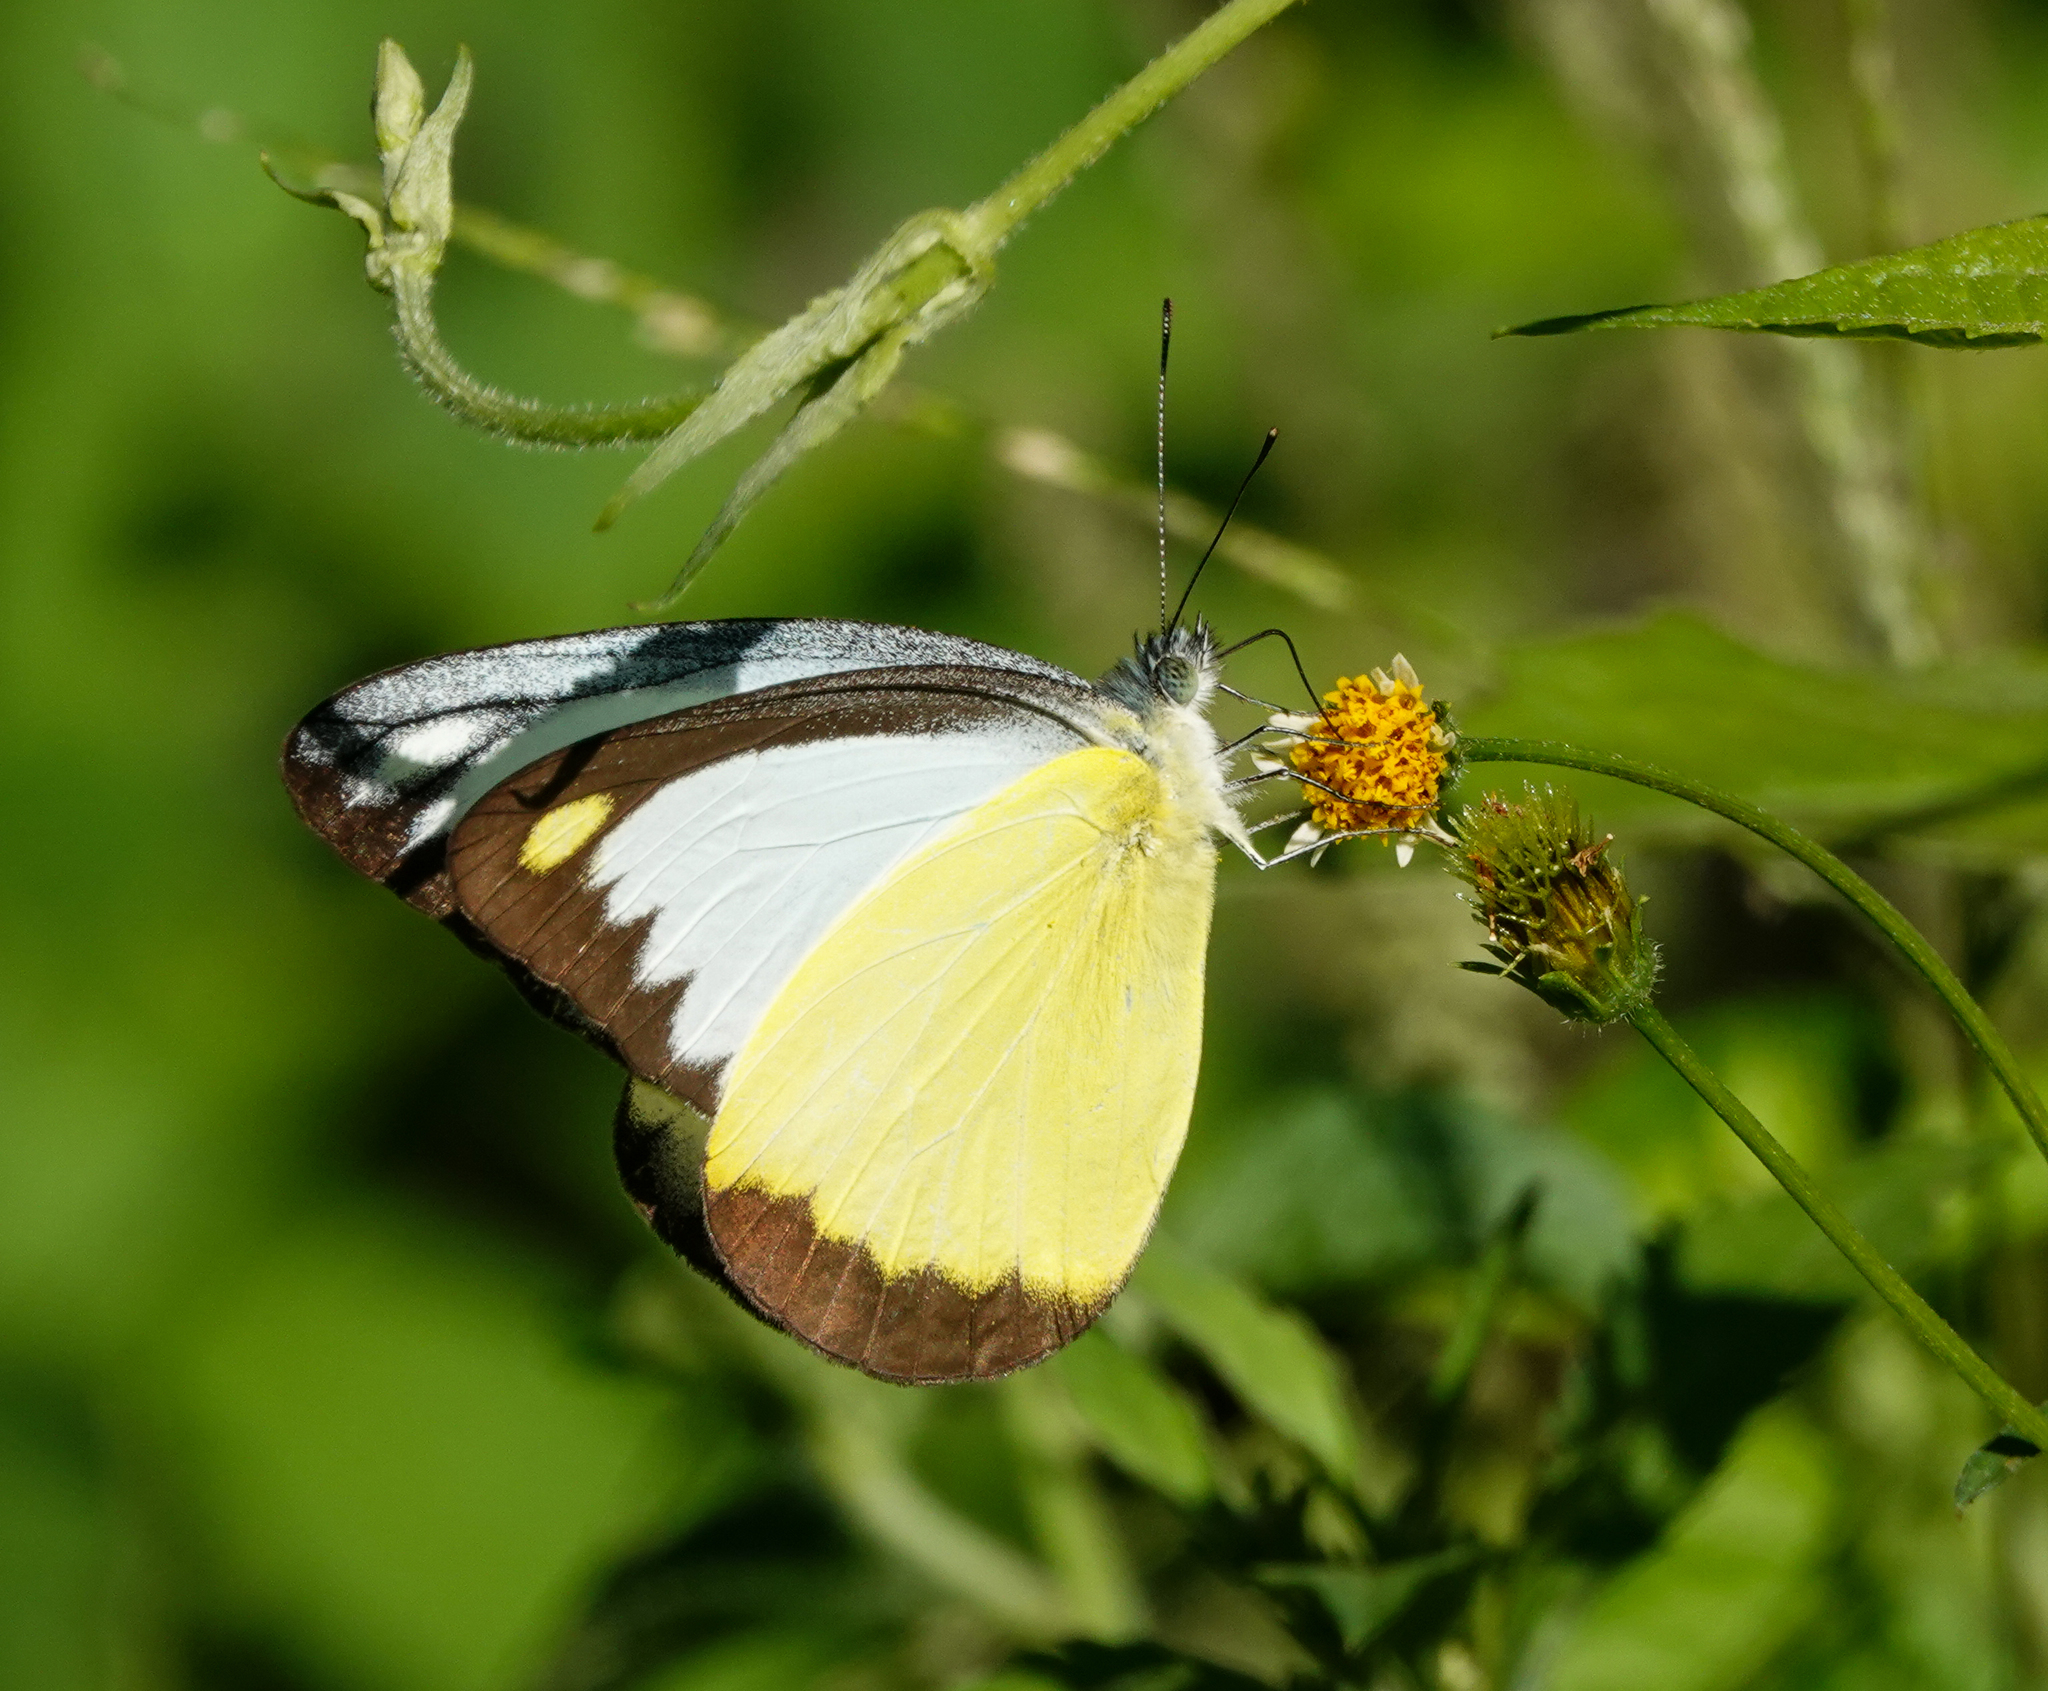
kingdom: Animalia
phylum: Arthropoda
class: Insecta
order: Lepidoptera
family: Pieridae
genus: Appias
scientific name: Appias lyncida
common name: Chocolate albatross
